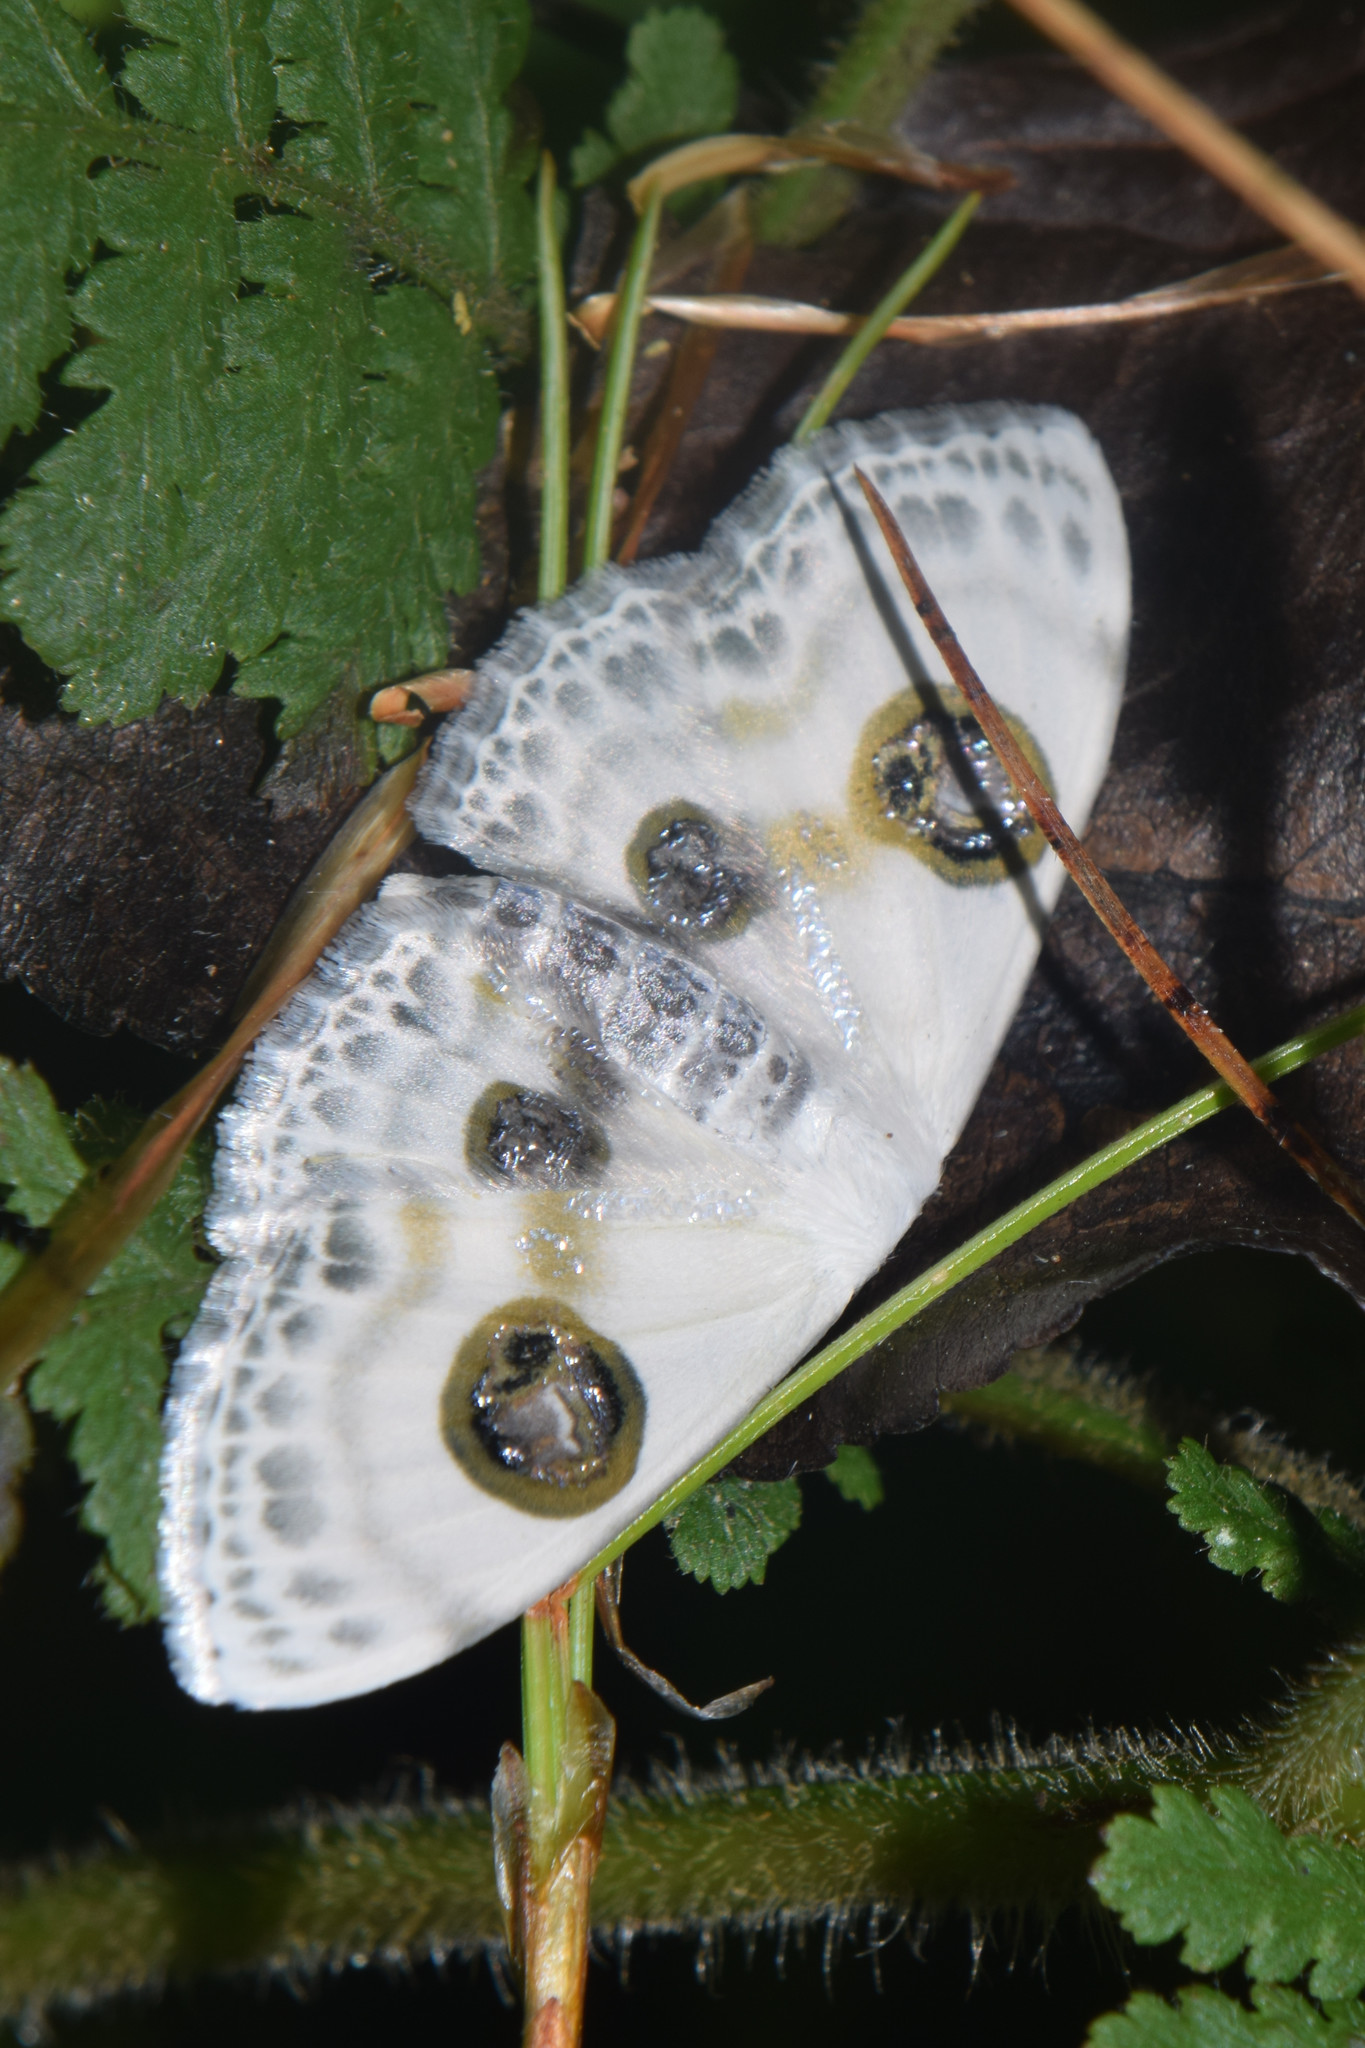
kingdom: Animalia
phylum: Arthropoda
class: Insecta
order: Lepidoptera
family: Geometridae
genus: Problepsis
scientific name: Problepsis crassinotata
